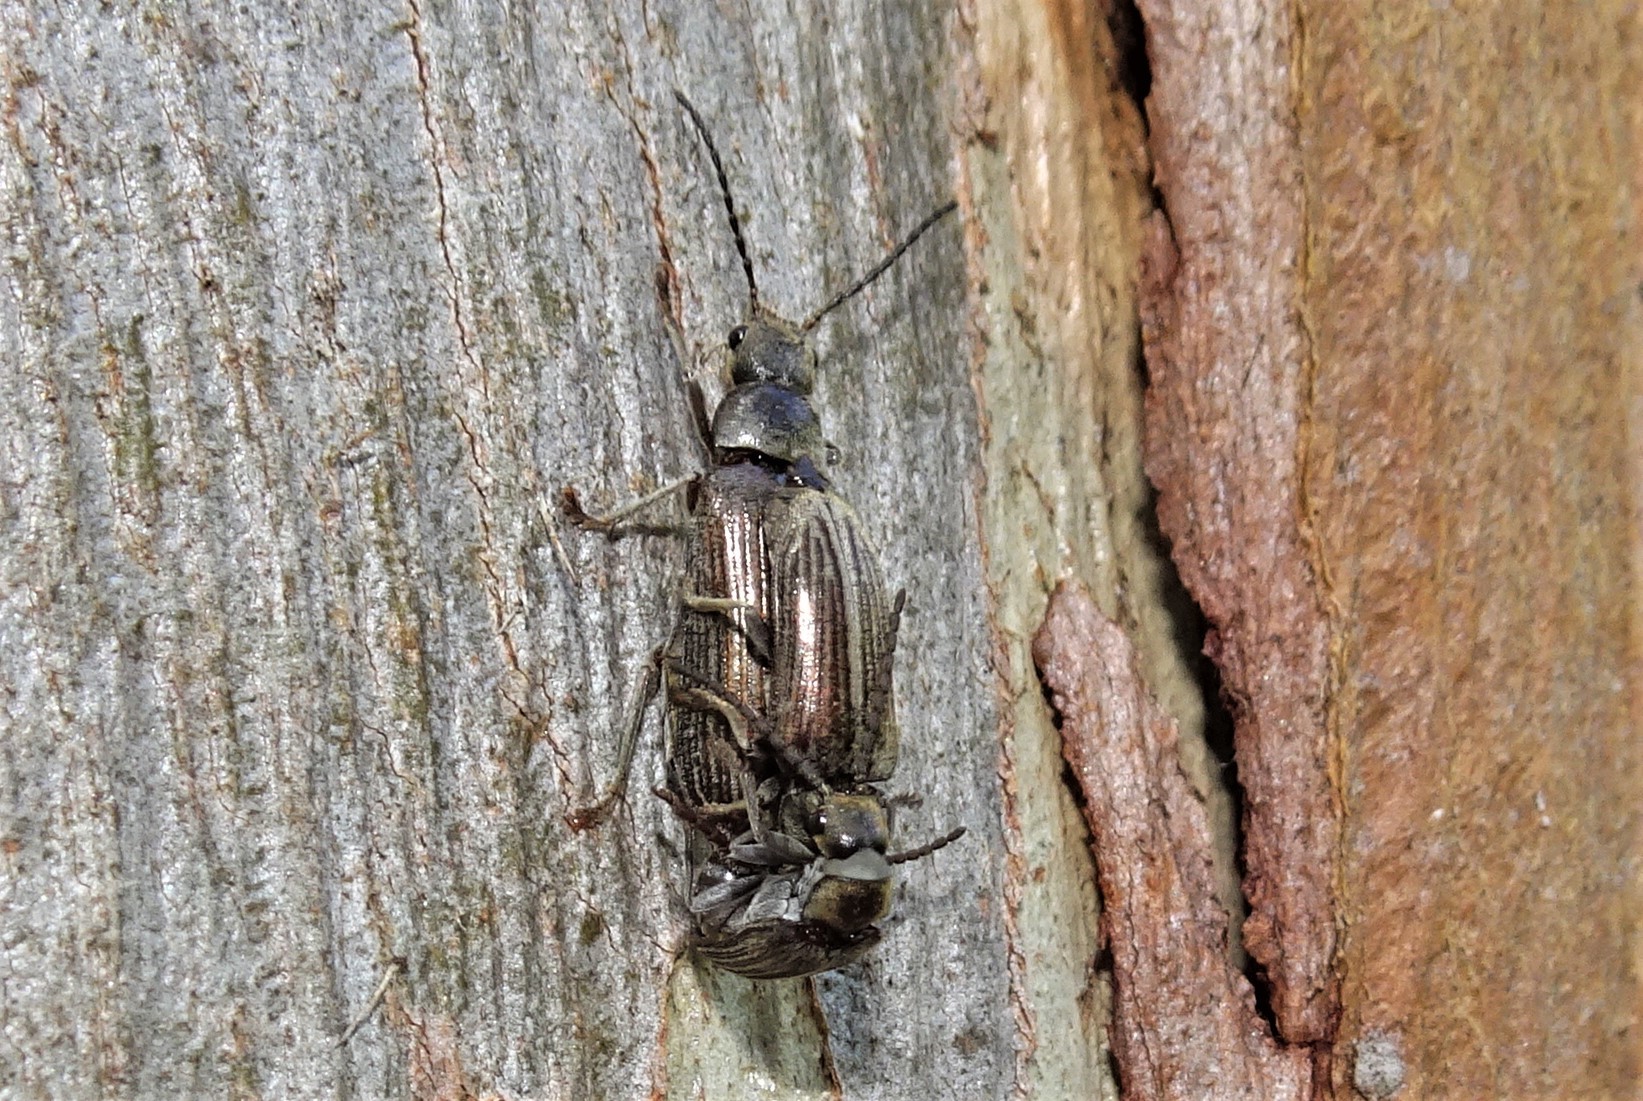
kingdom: Animalia
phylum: Arthropoda
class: Insecta
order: Coleoptera
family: Dascillidae
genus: Notodascillus
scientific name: Notodascillus brevicornis
